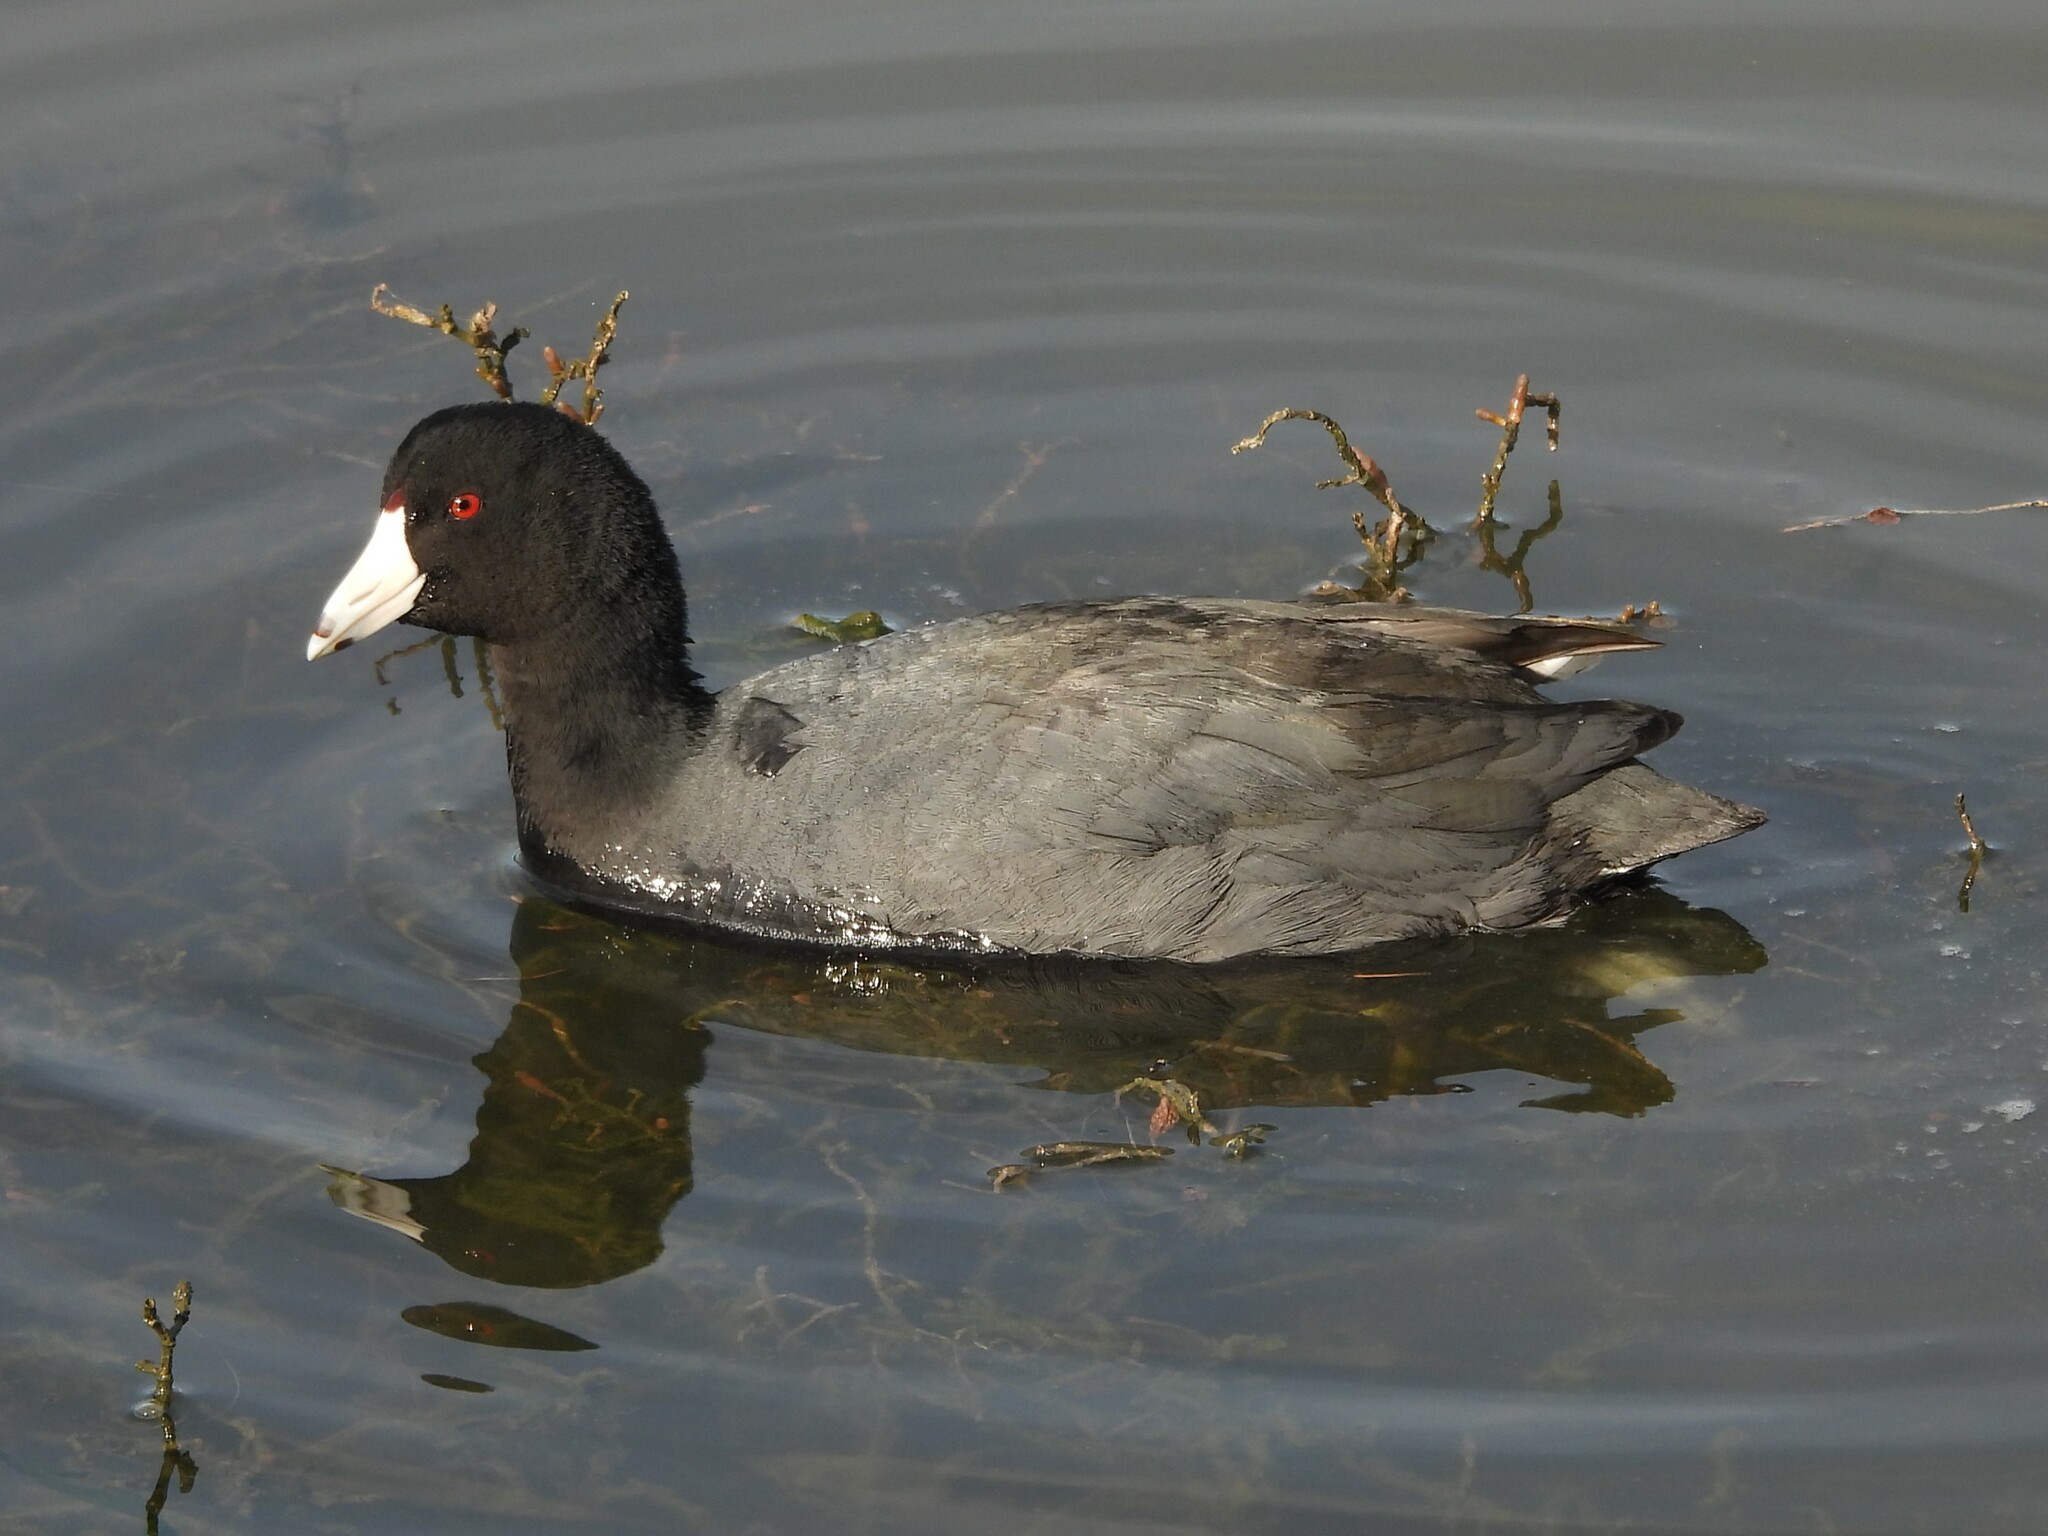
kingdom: Animalia
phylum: Chordata
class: Aves
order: Gruiformes
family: Rallidae
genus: Fulica
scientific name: Fulica americana
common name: American coot
